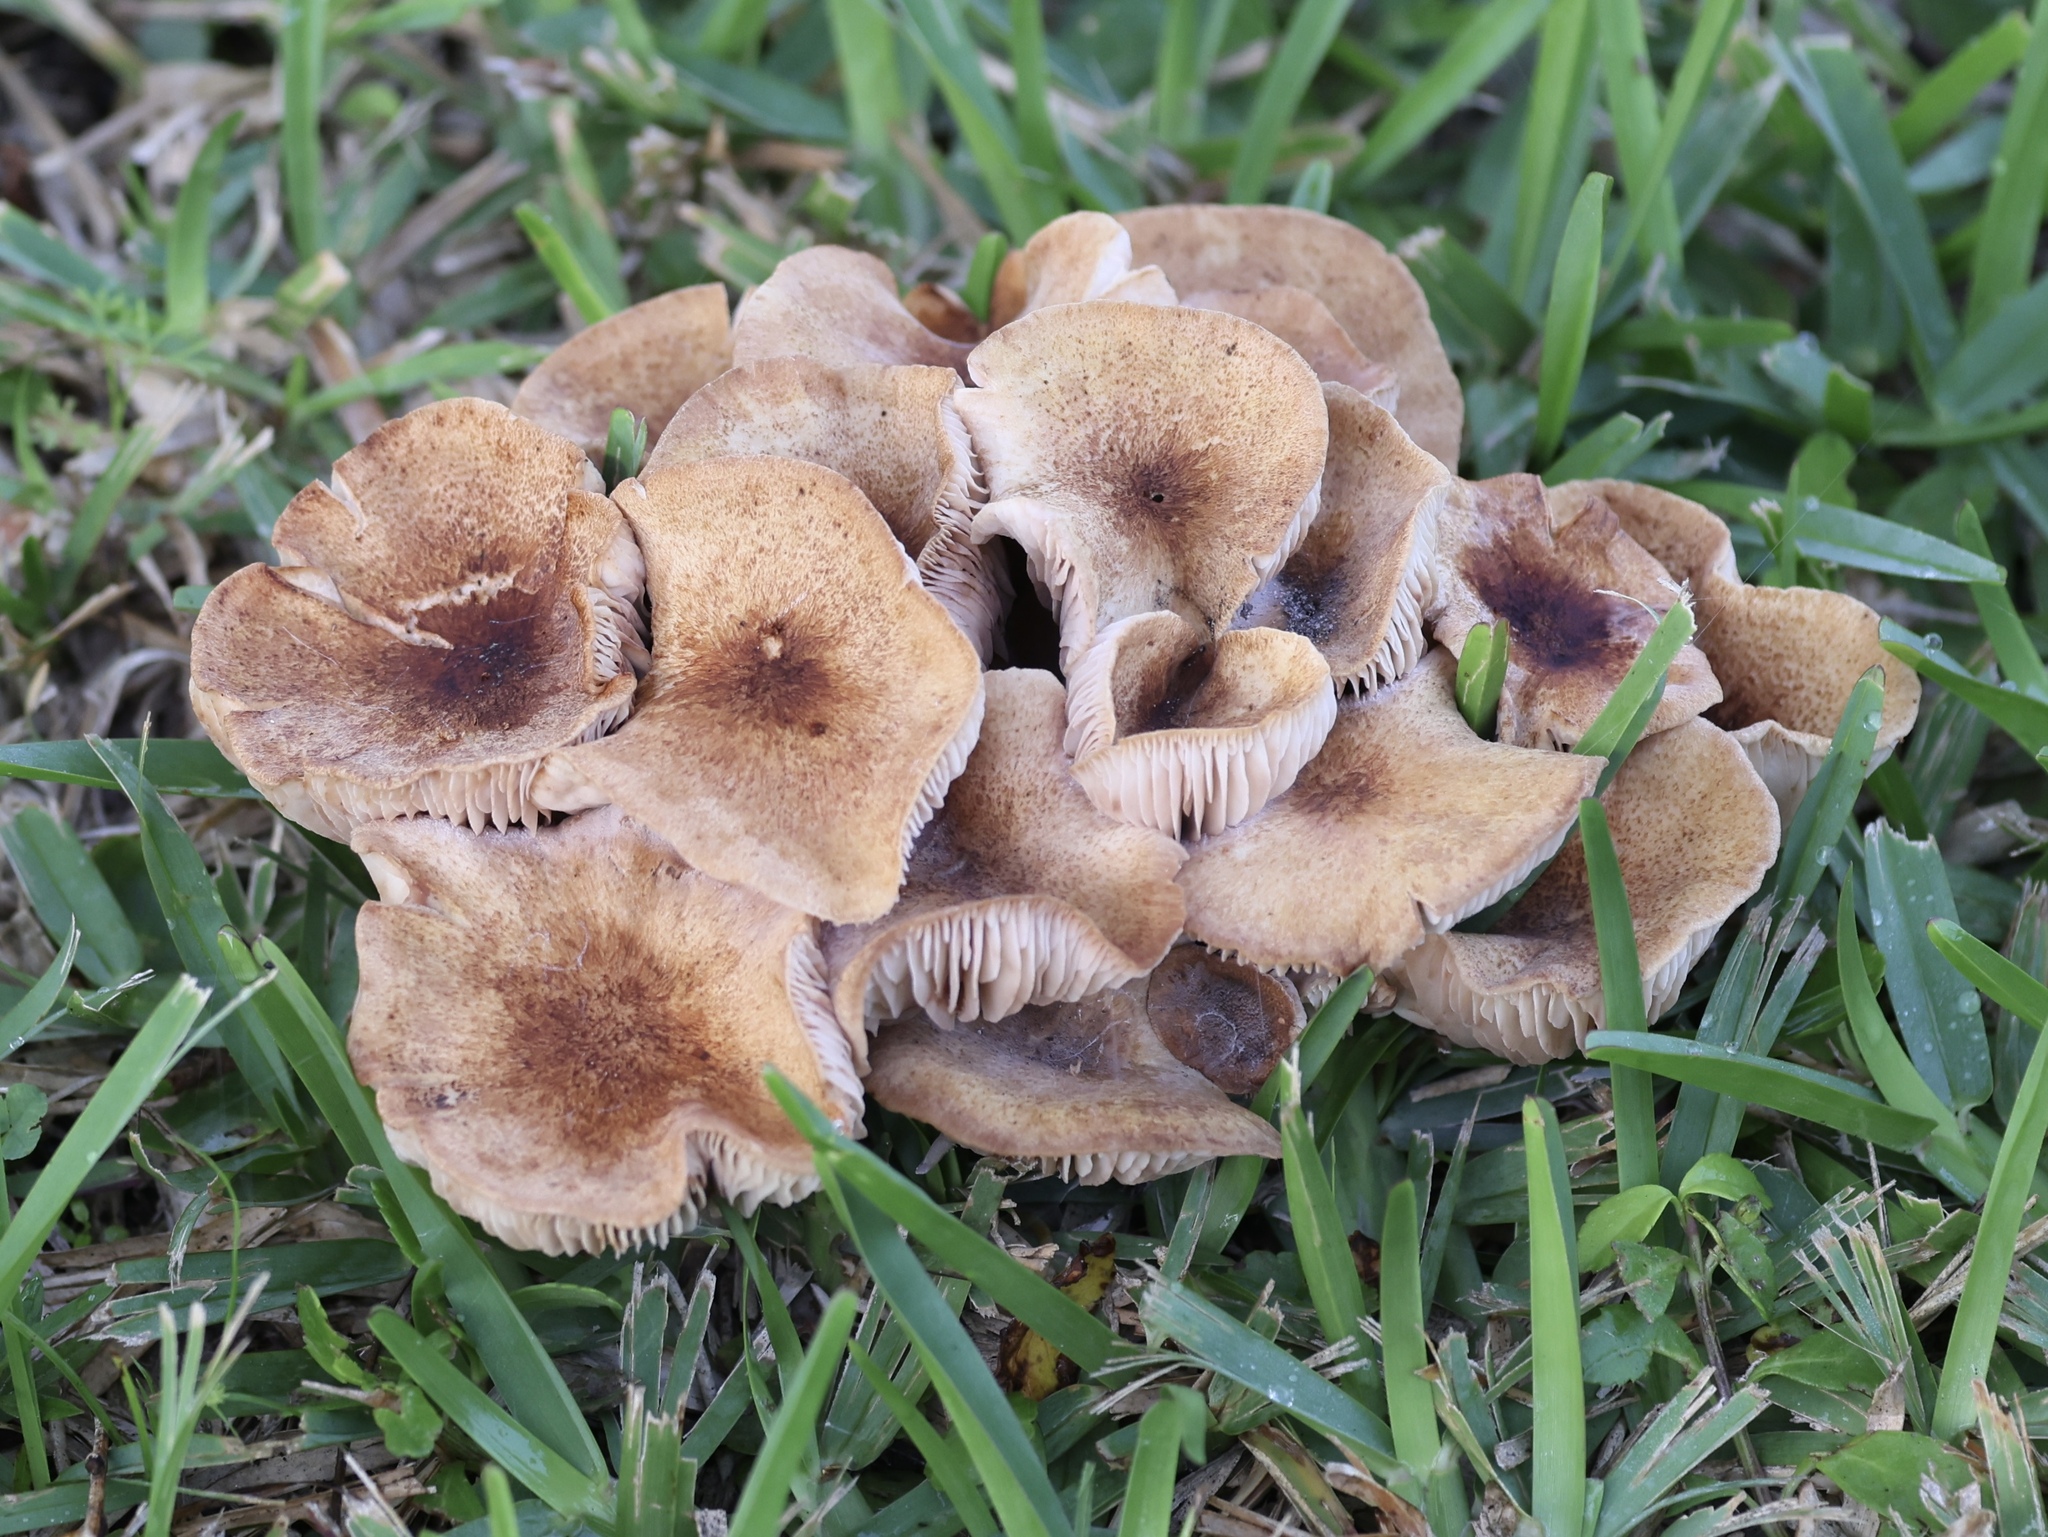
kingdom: Fungi
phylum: Basidiomycota
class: Agaricomycetes
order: Agaricales
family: Physalacriaceae
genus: Desarmillaria
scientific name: Desarmillaria caespitosa
